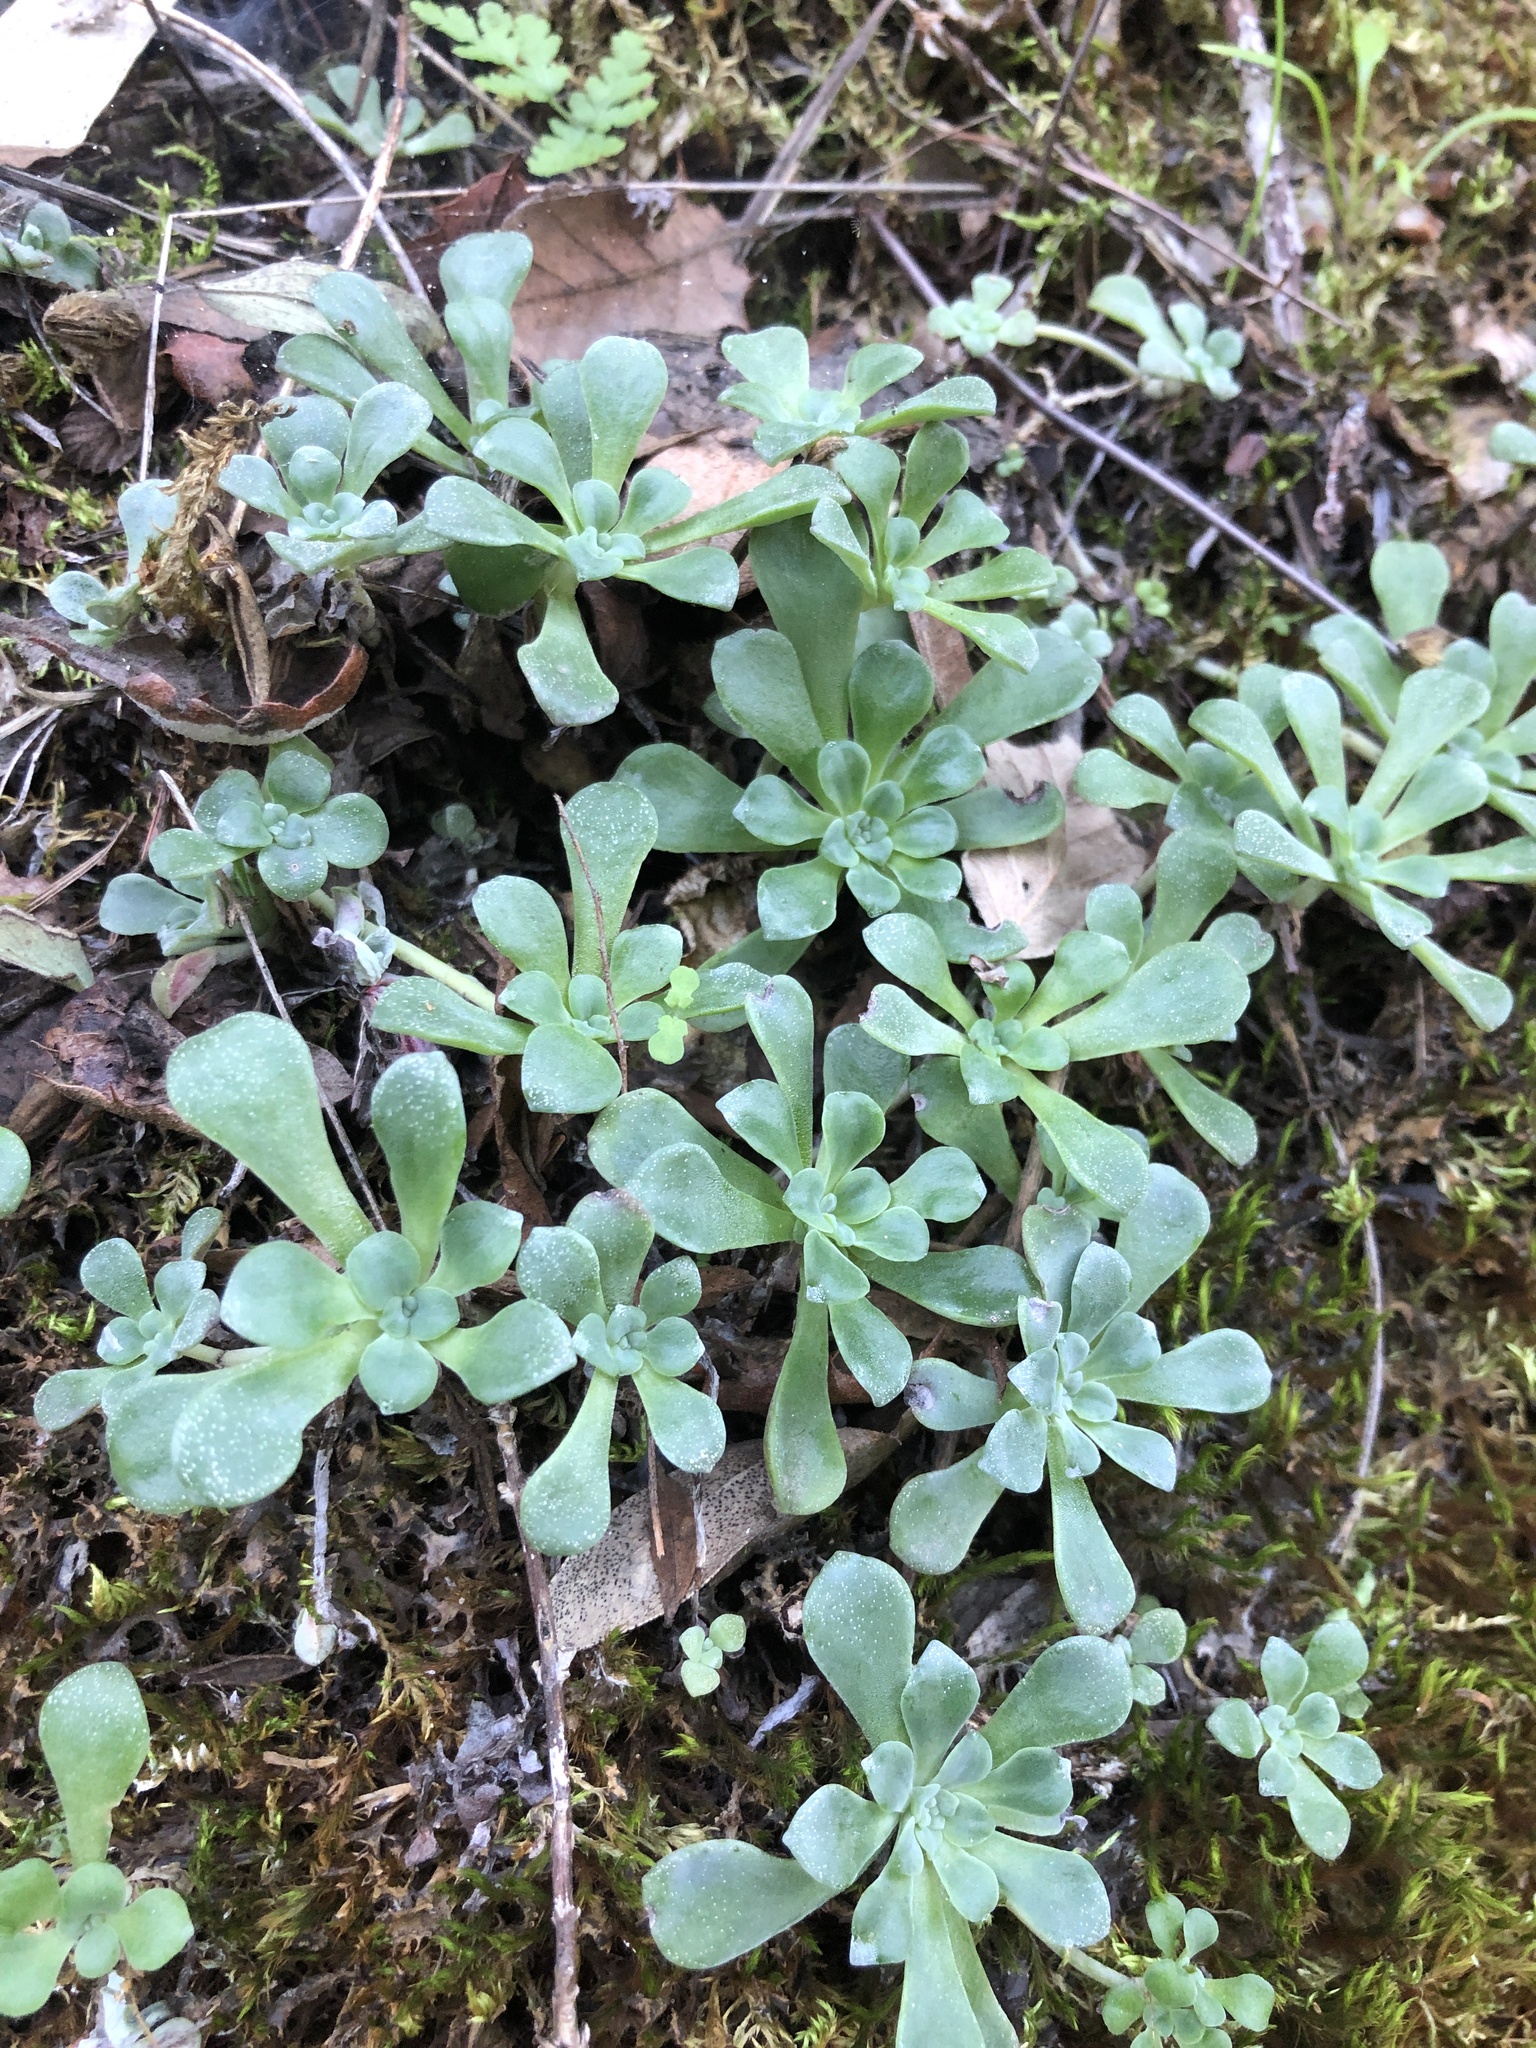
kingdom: Plantae
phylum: Tracheophyta
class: Magnoliopsida
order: Saxifragales
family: Crassulaceae
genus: Sedum
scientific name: Sedum spathulifolium
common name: Colorado stonecrop
